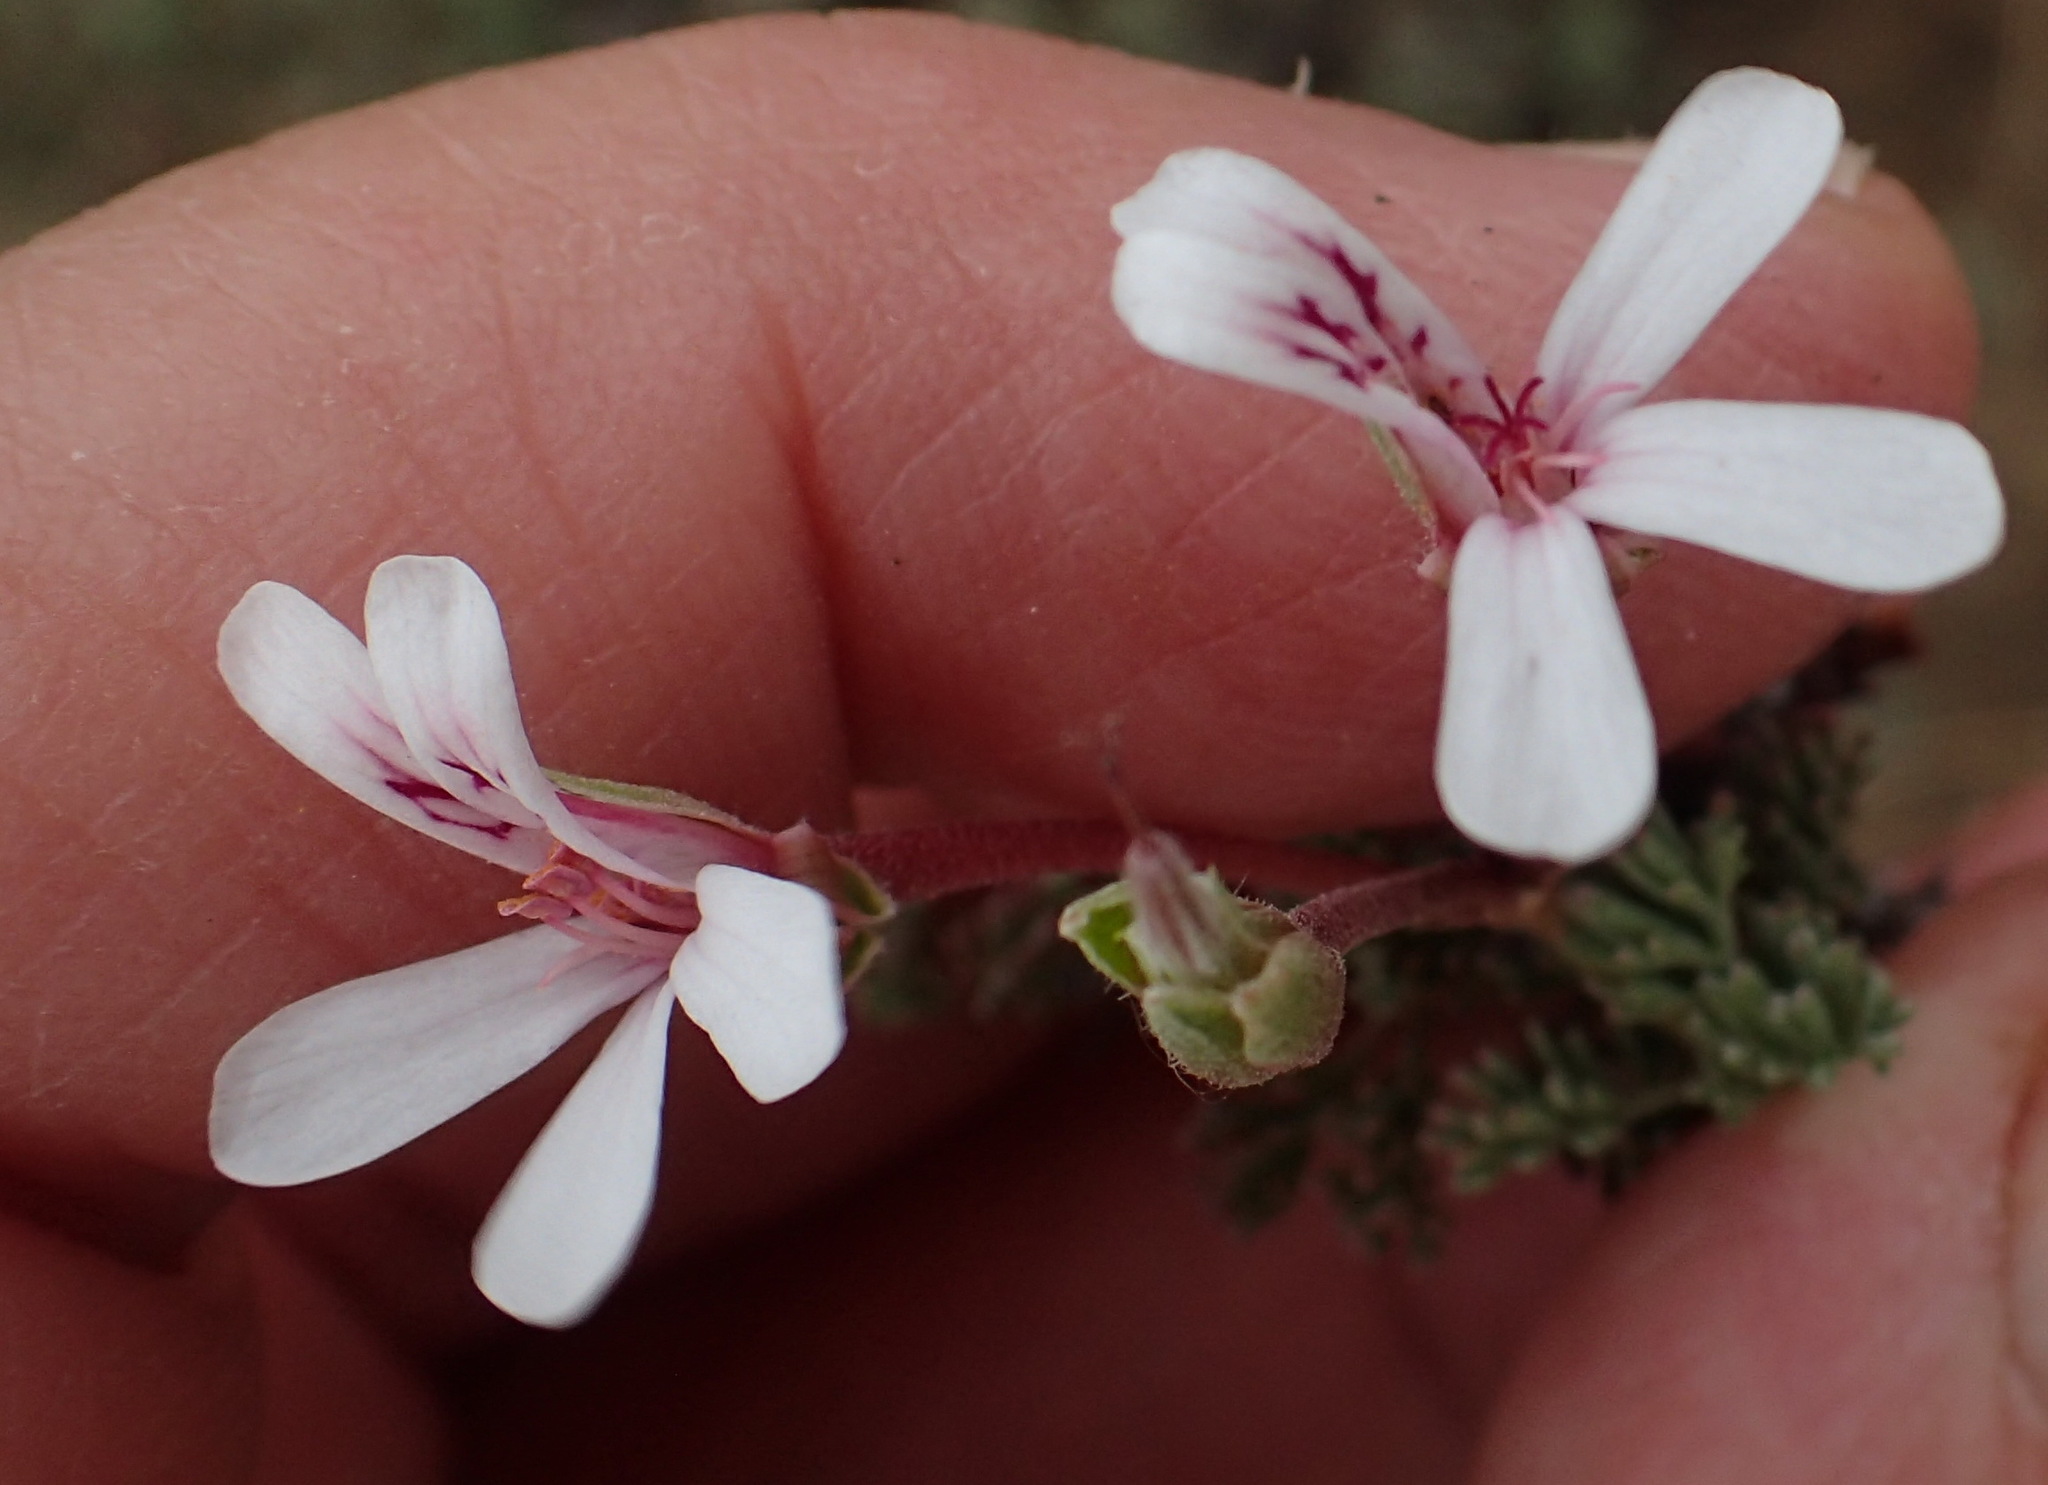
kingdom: Plantae
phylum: Tracheophyta
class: Magnoliopsida
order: Geraniales
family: Geraniaceae
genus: Pelargonium
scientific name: Pelargonium abrotanifolium
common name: Southernwood geranium
